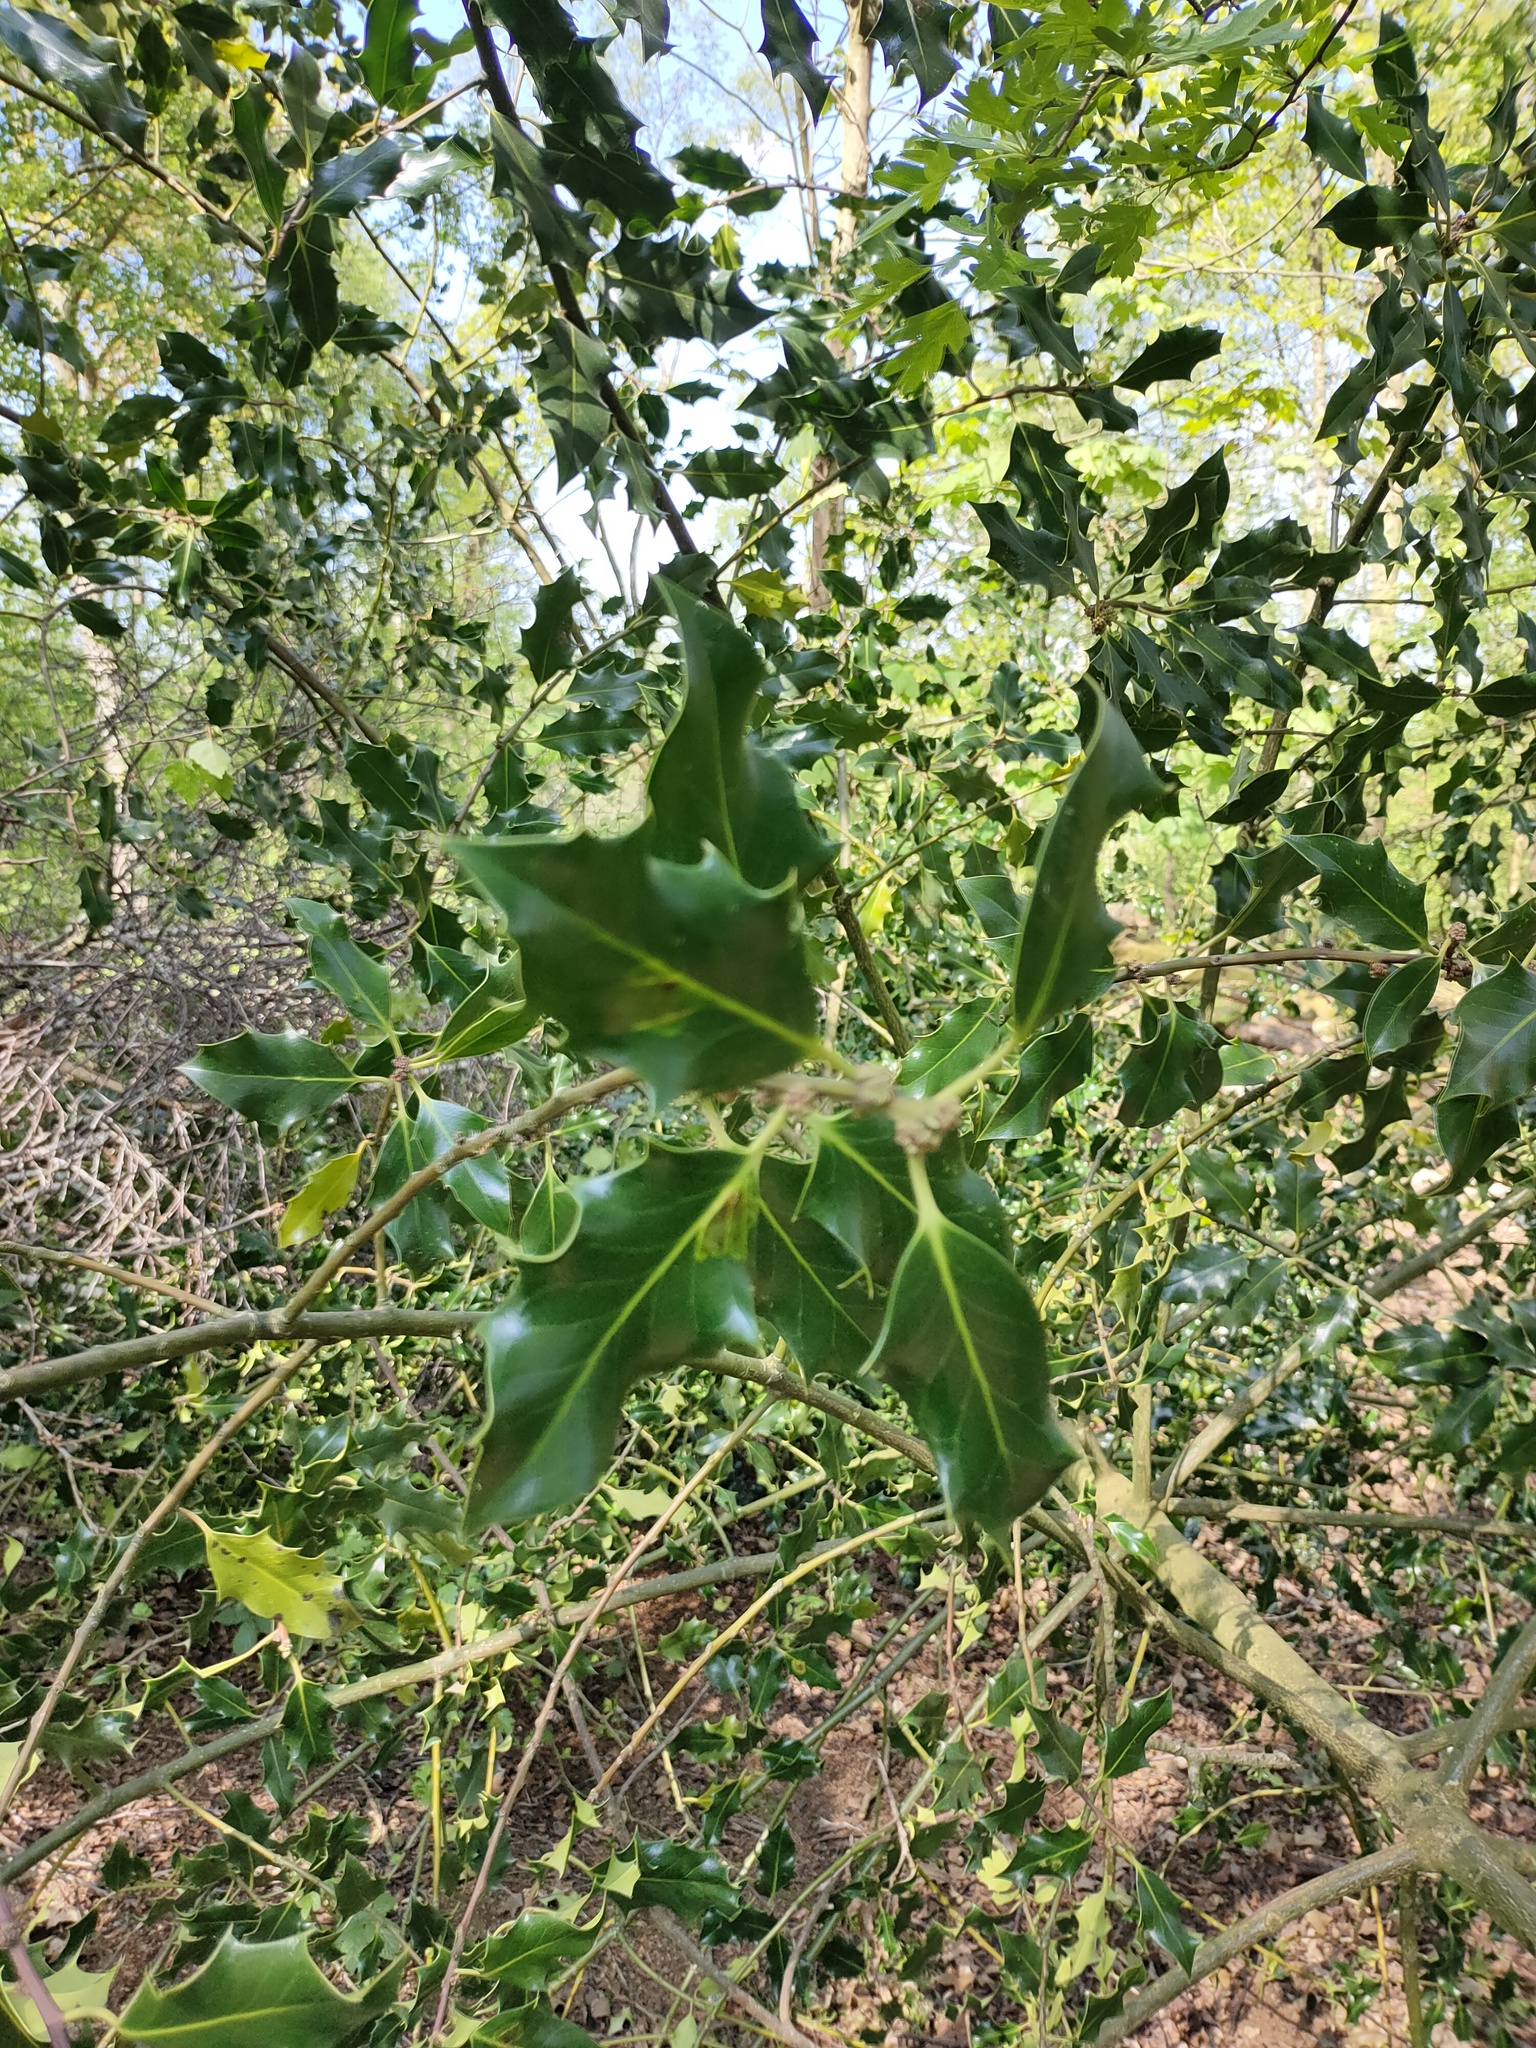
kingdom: Animalia
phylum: Arthropoda
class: Insecta
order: Diptera
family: Agromyzidae
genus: Phytomyza
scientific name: Phytomyza ilicis
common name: Holly leafminer
